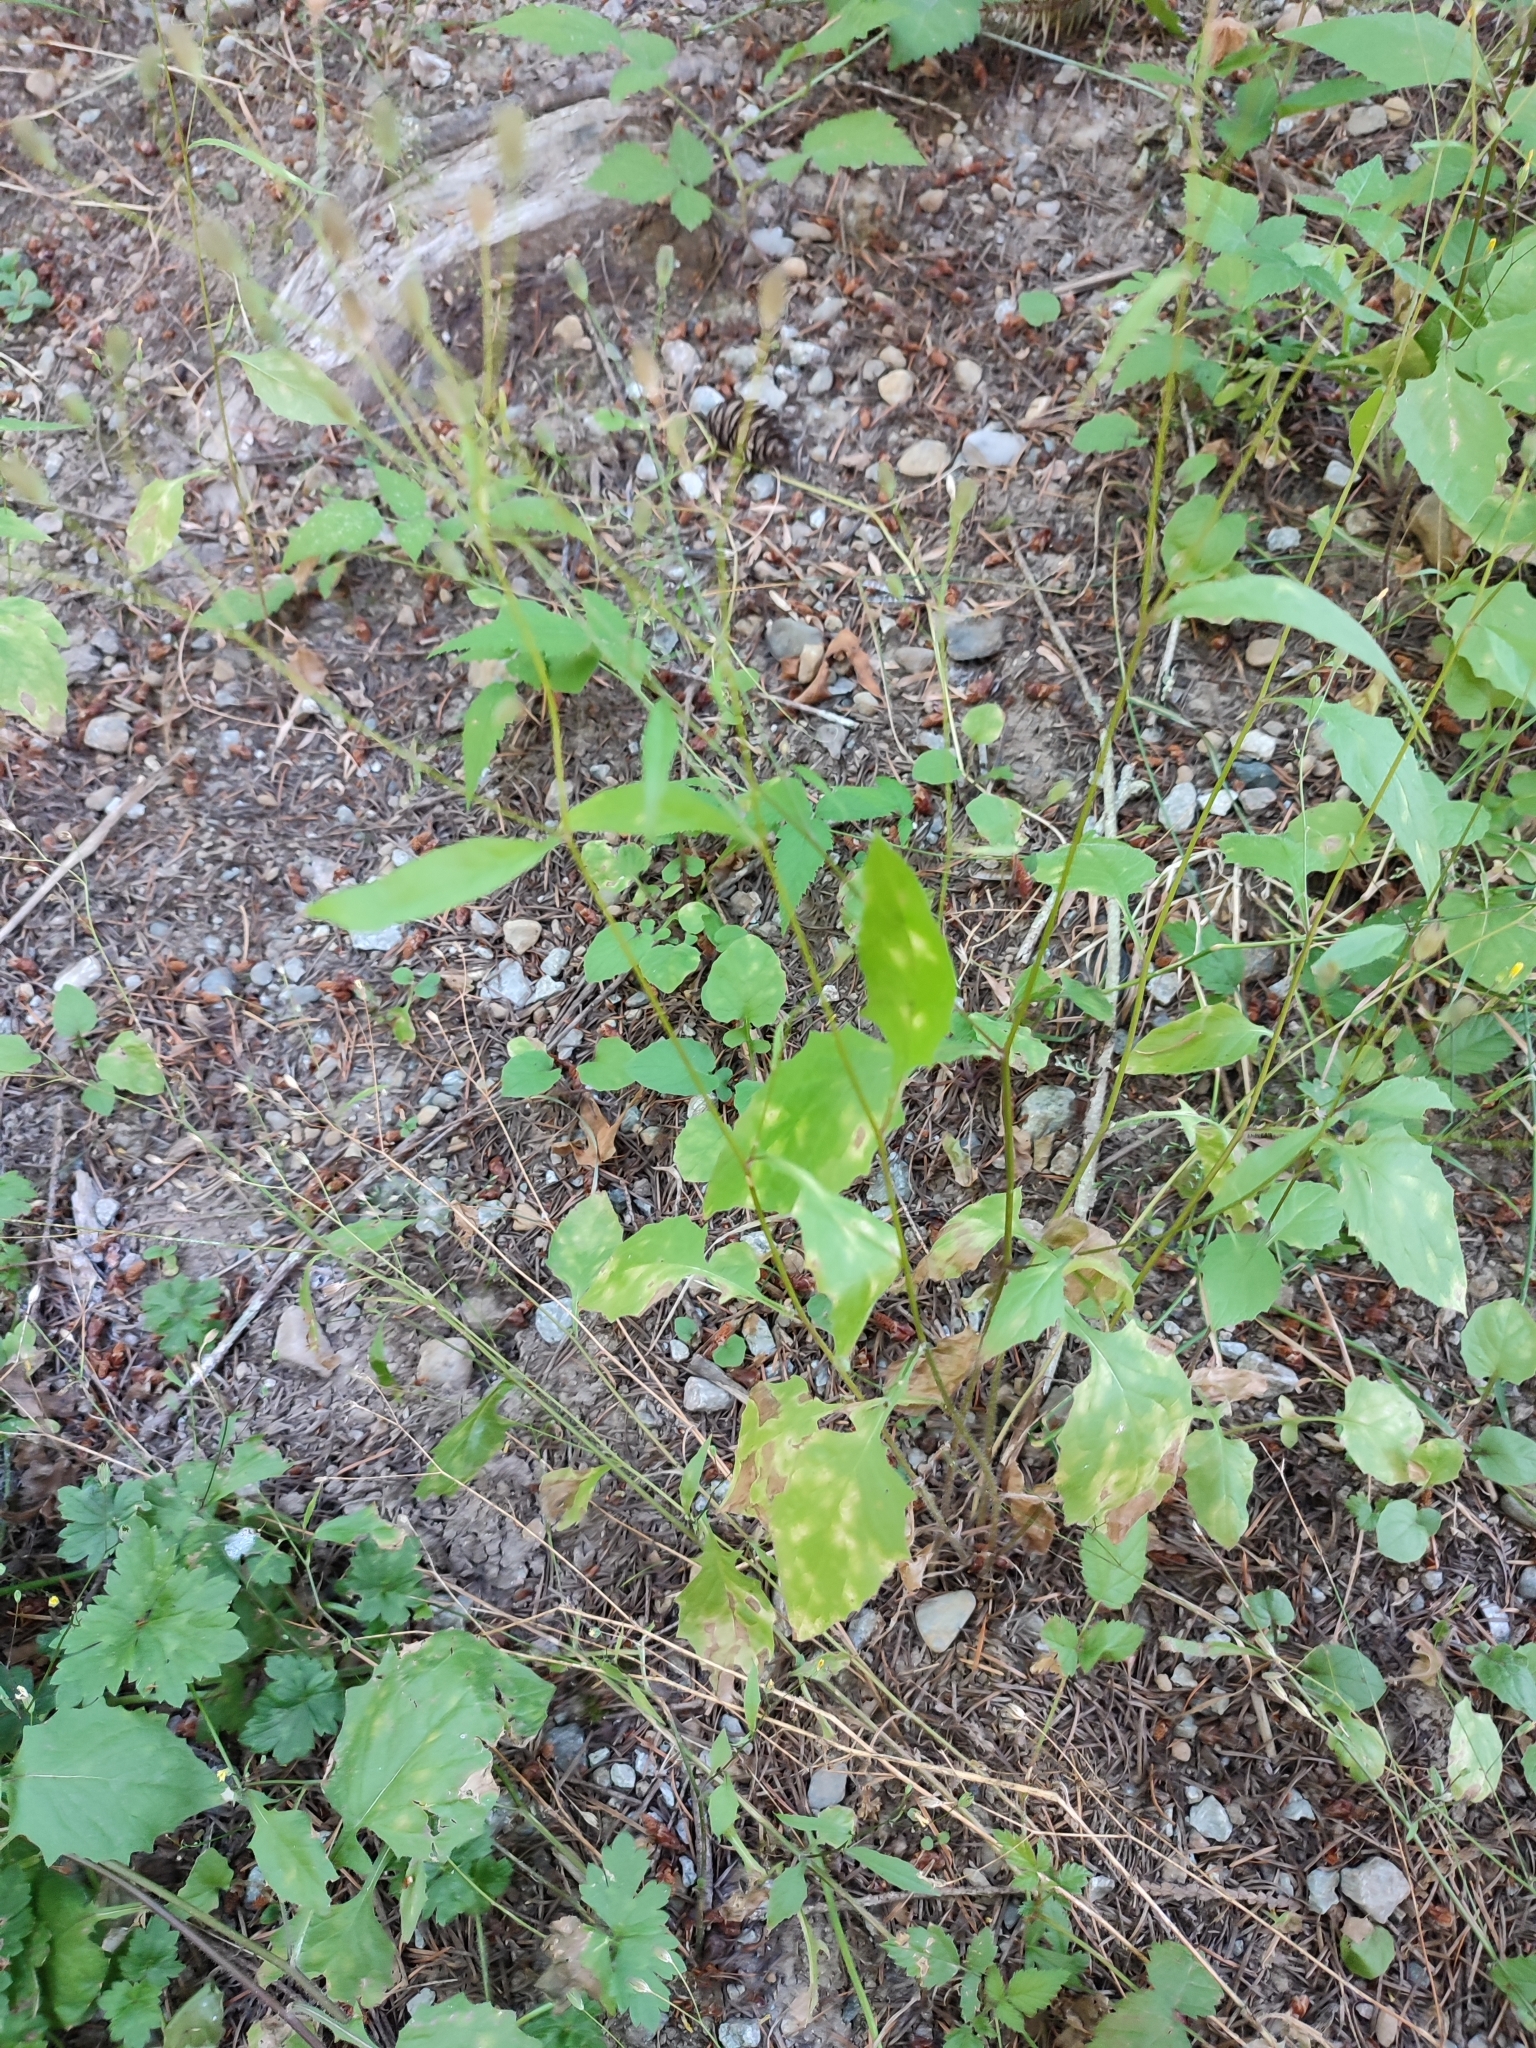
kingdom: Plantae
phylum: Tracheophyta
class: Magnoliopsida
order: Asterales
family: Asteraceae
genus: Lapsana
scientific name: Lapsana communis
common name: Nipplewort
